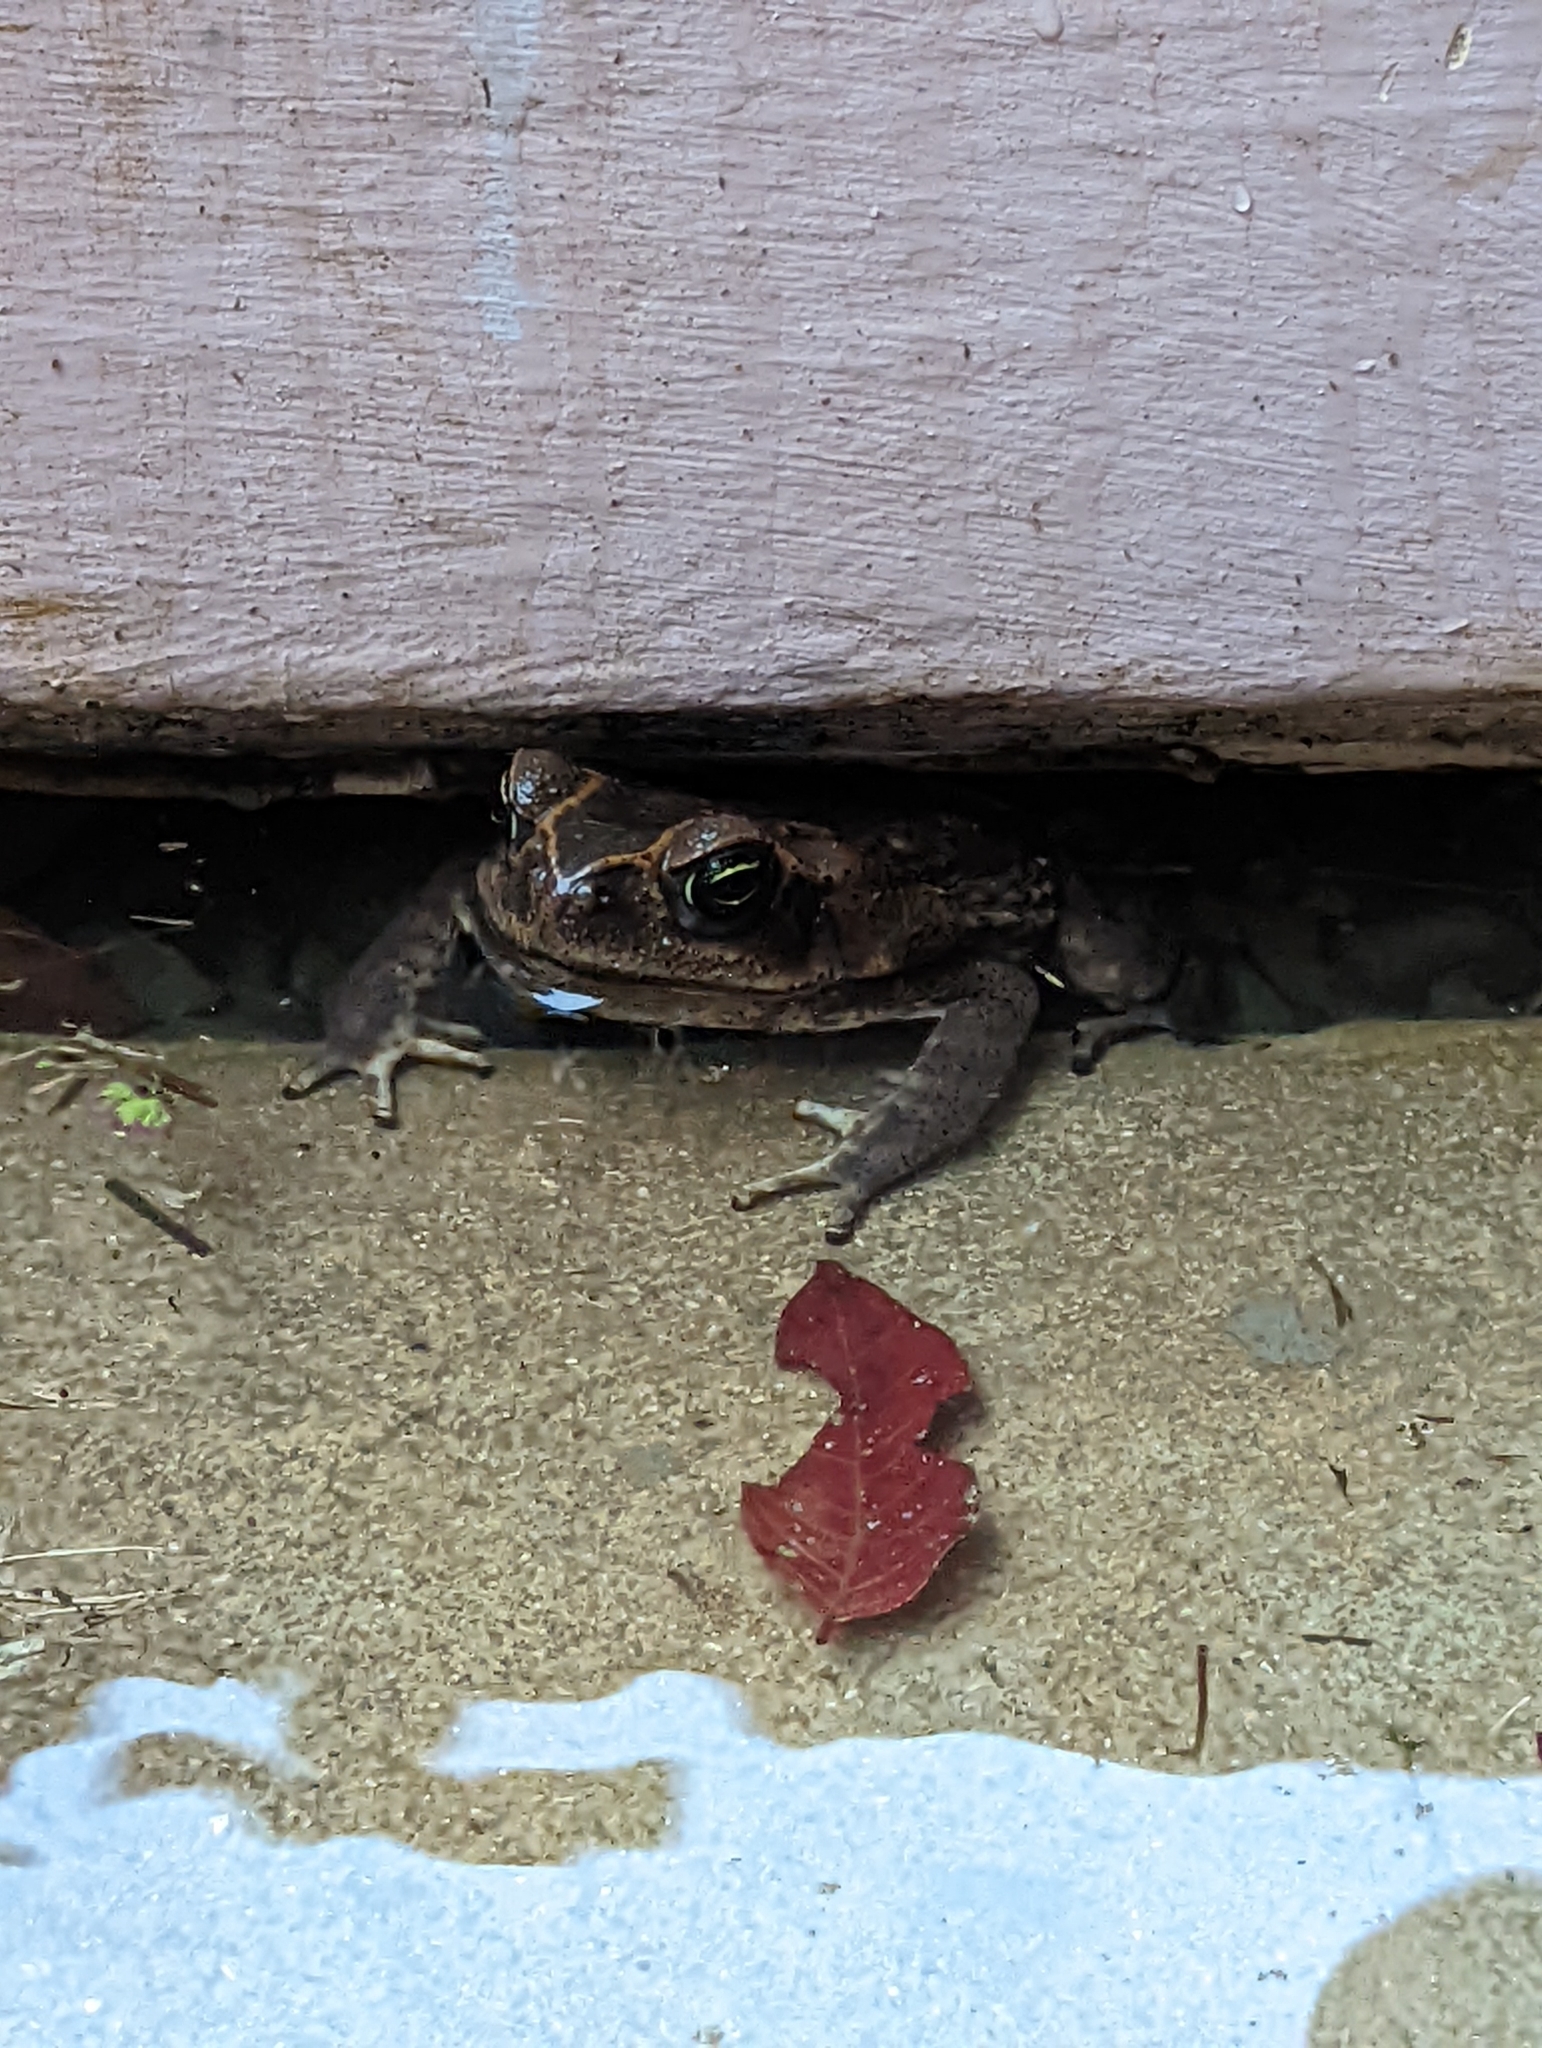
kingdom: Animalia
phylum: Chordata
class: Amphibia
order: Anura
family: Bufonidae
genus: Rhinella
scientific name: Rhinella horribilis
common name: Mesoamerican cane toad
